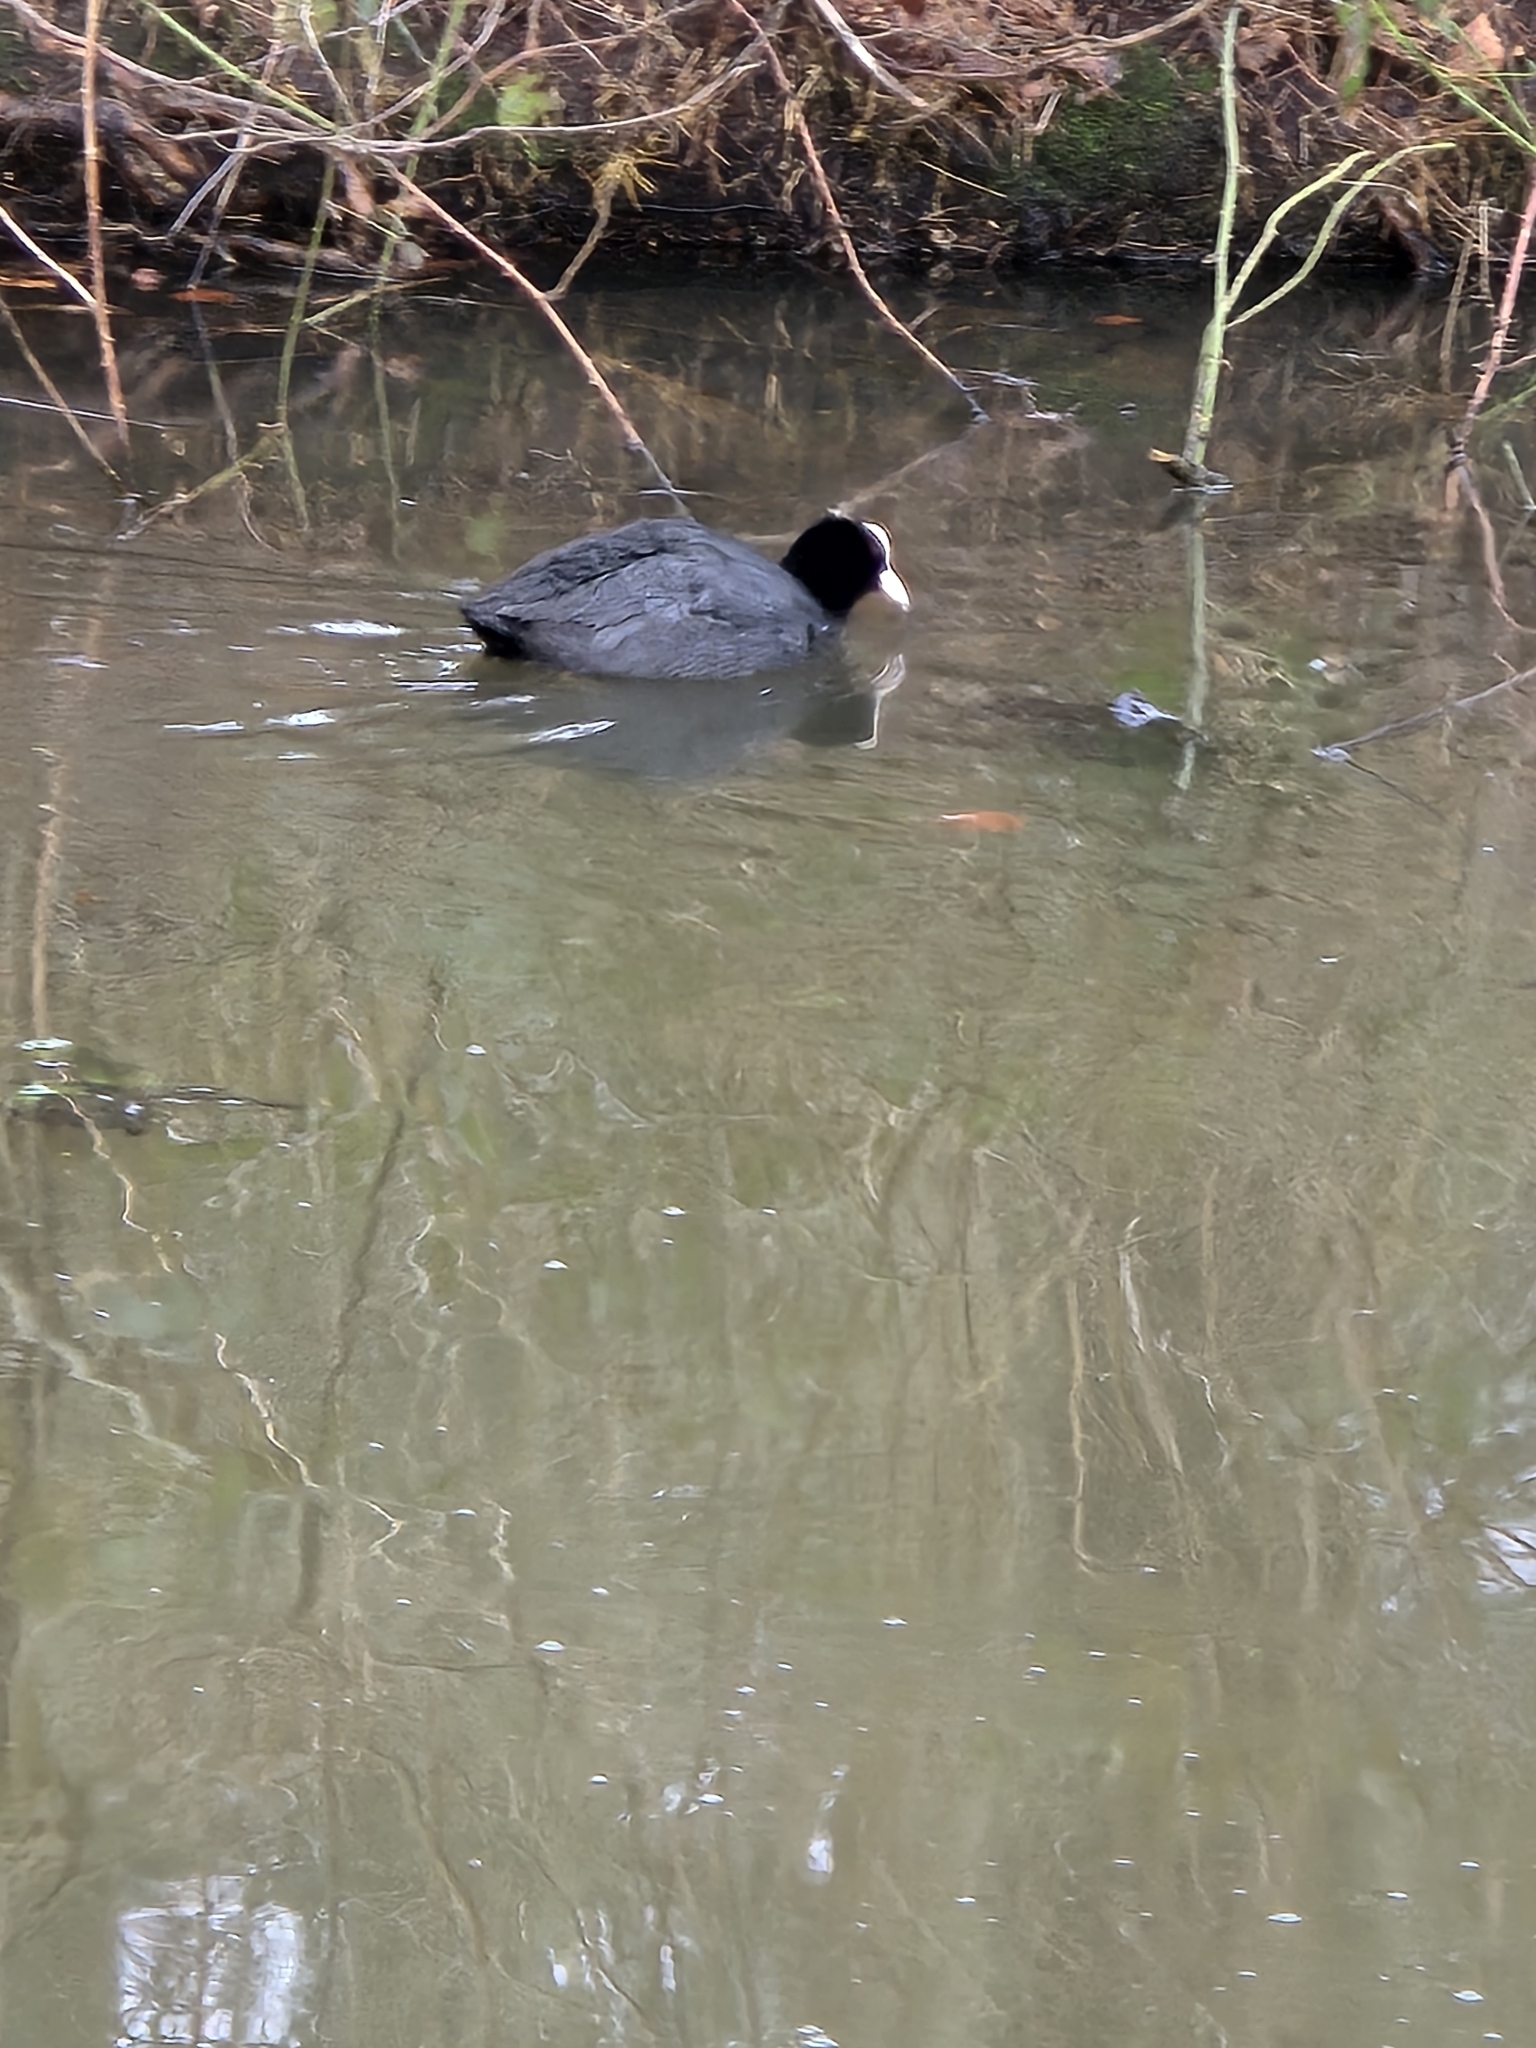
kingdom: Animalia
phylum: Chordata
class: Aves
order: Gruiformes
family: Rallidae
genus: Fulica
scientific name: Fulica atra
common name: Eurasian coot
